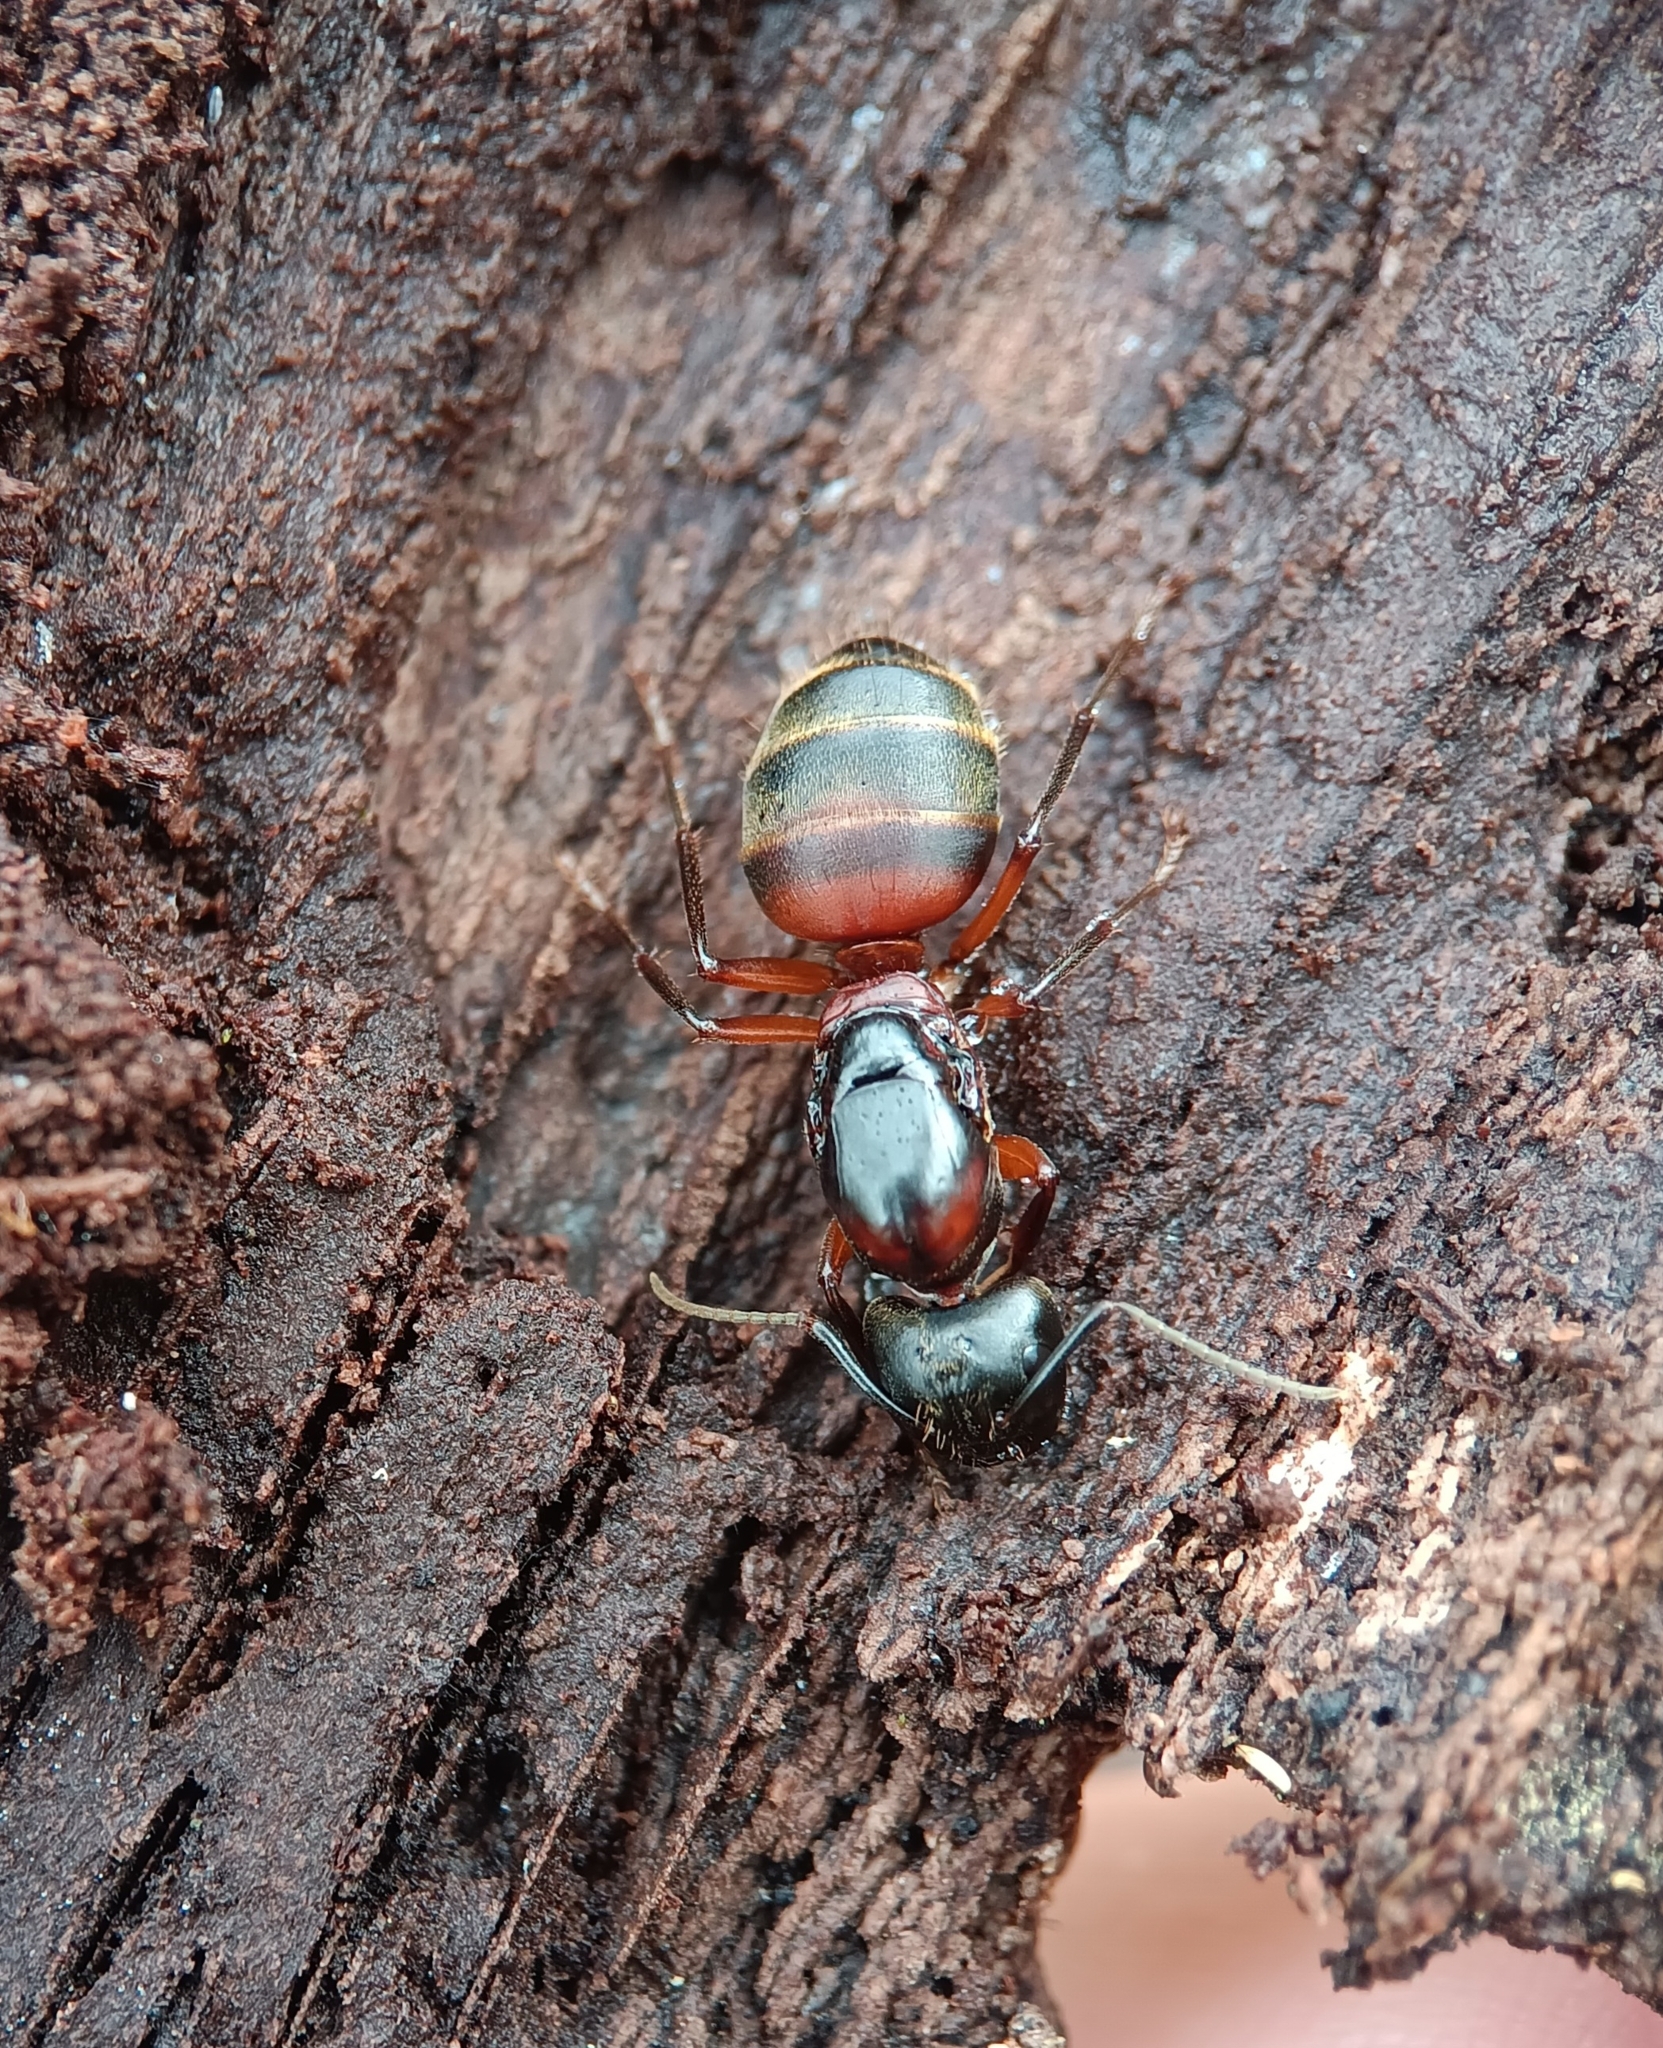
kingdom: Animalia
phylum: Arthropoda
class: Insecta
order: Hymenoptera
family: Formicidae
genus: Camponotus
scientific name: Camponotus chromaiodes
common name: Red carpenter ant
